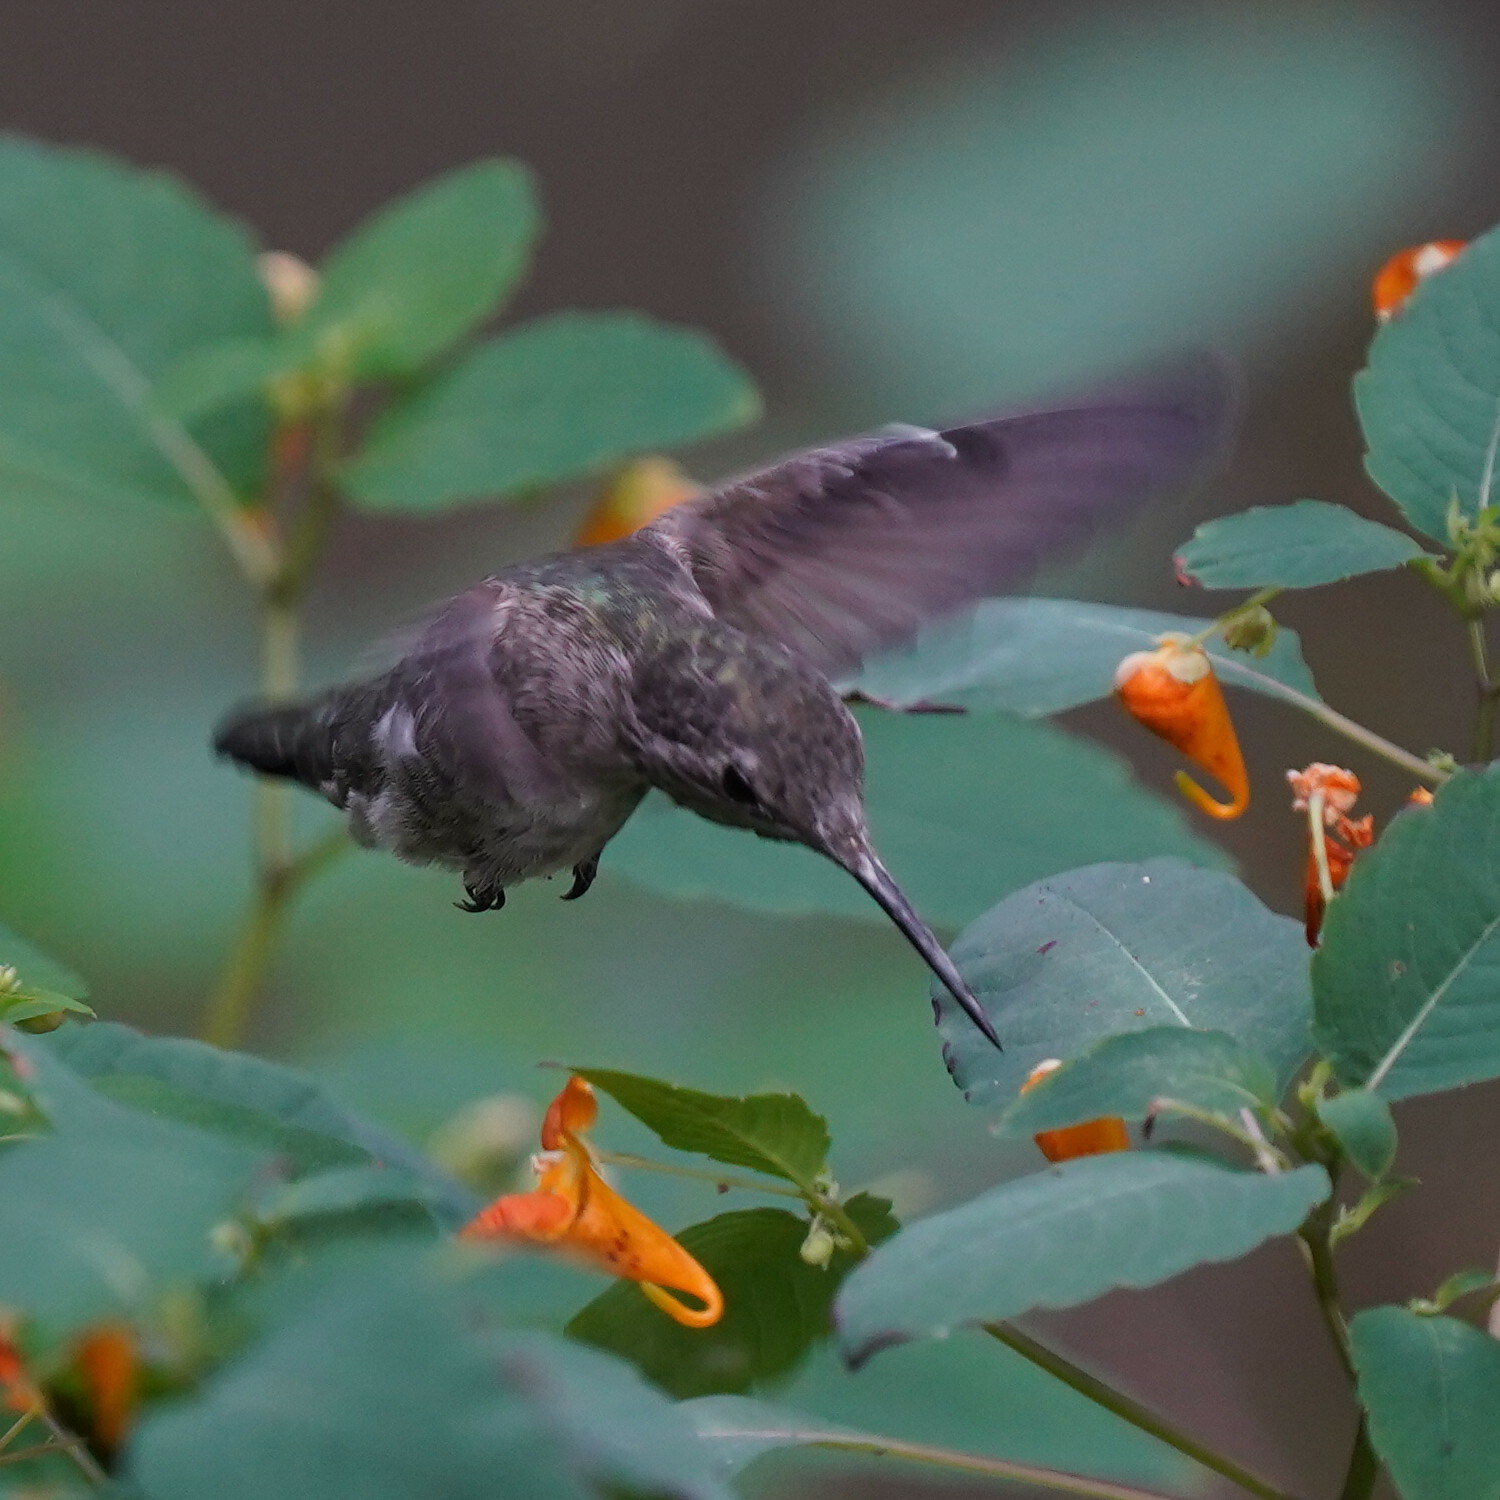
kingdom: Animalia
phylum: Chordata
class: Aves
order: Apodiformes
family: Trochilidae
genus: Calypte
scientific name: Calypte anna
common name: Anna's hummingbird
